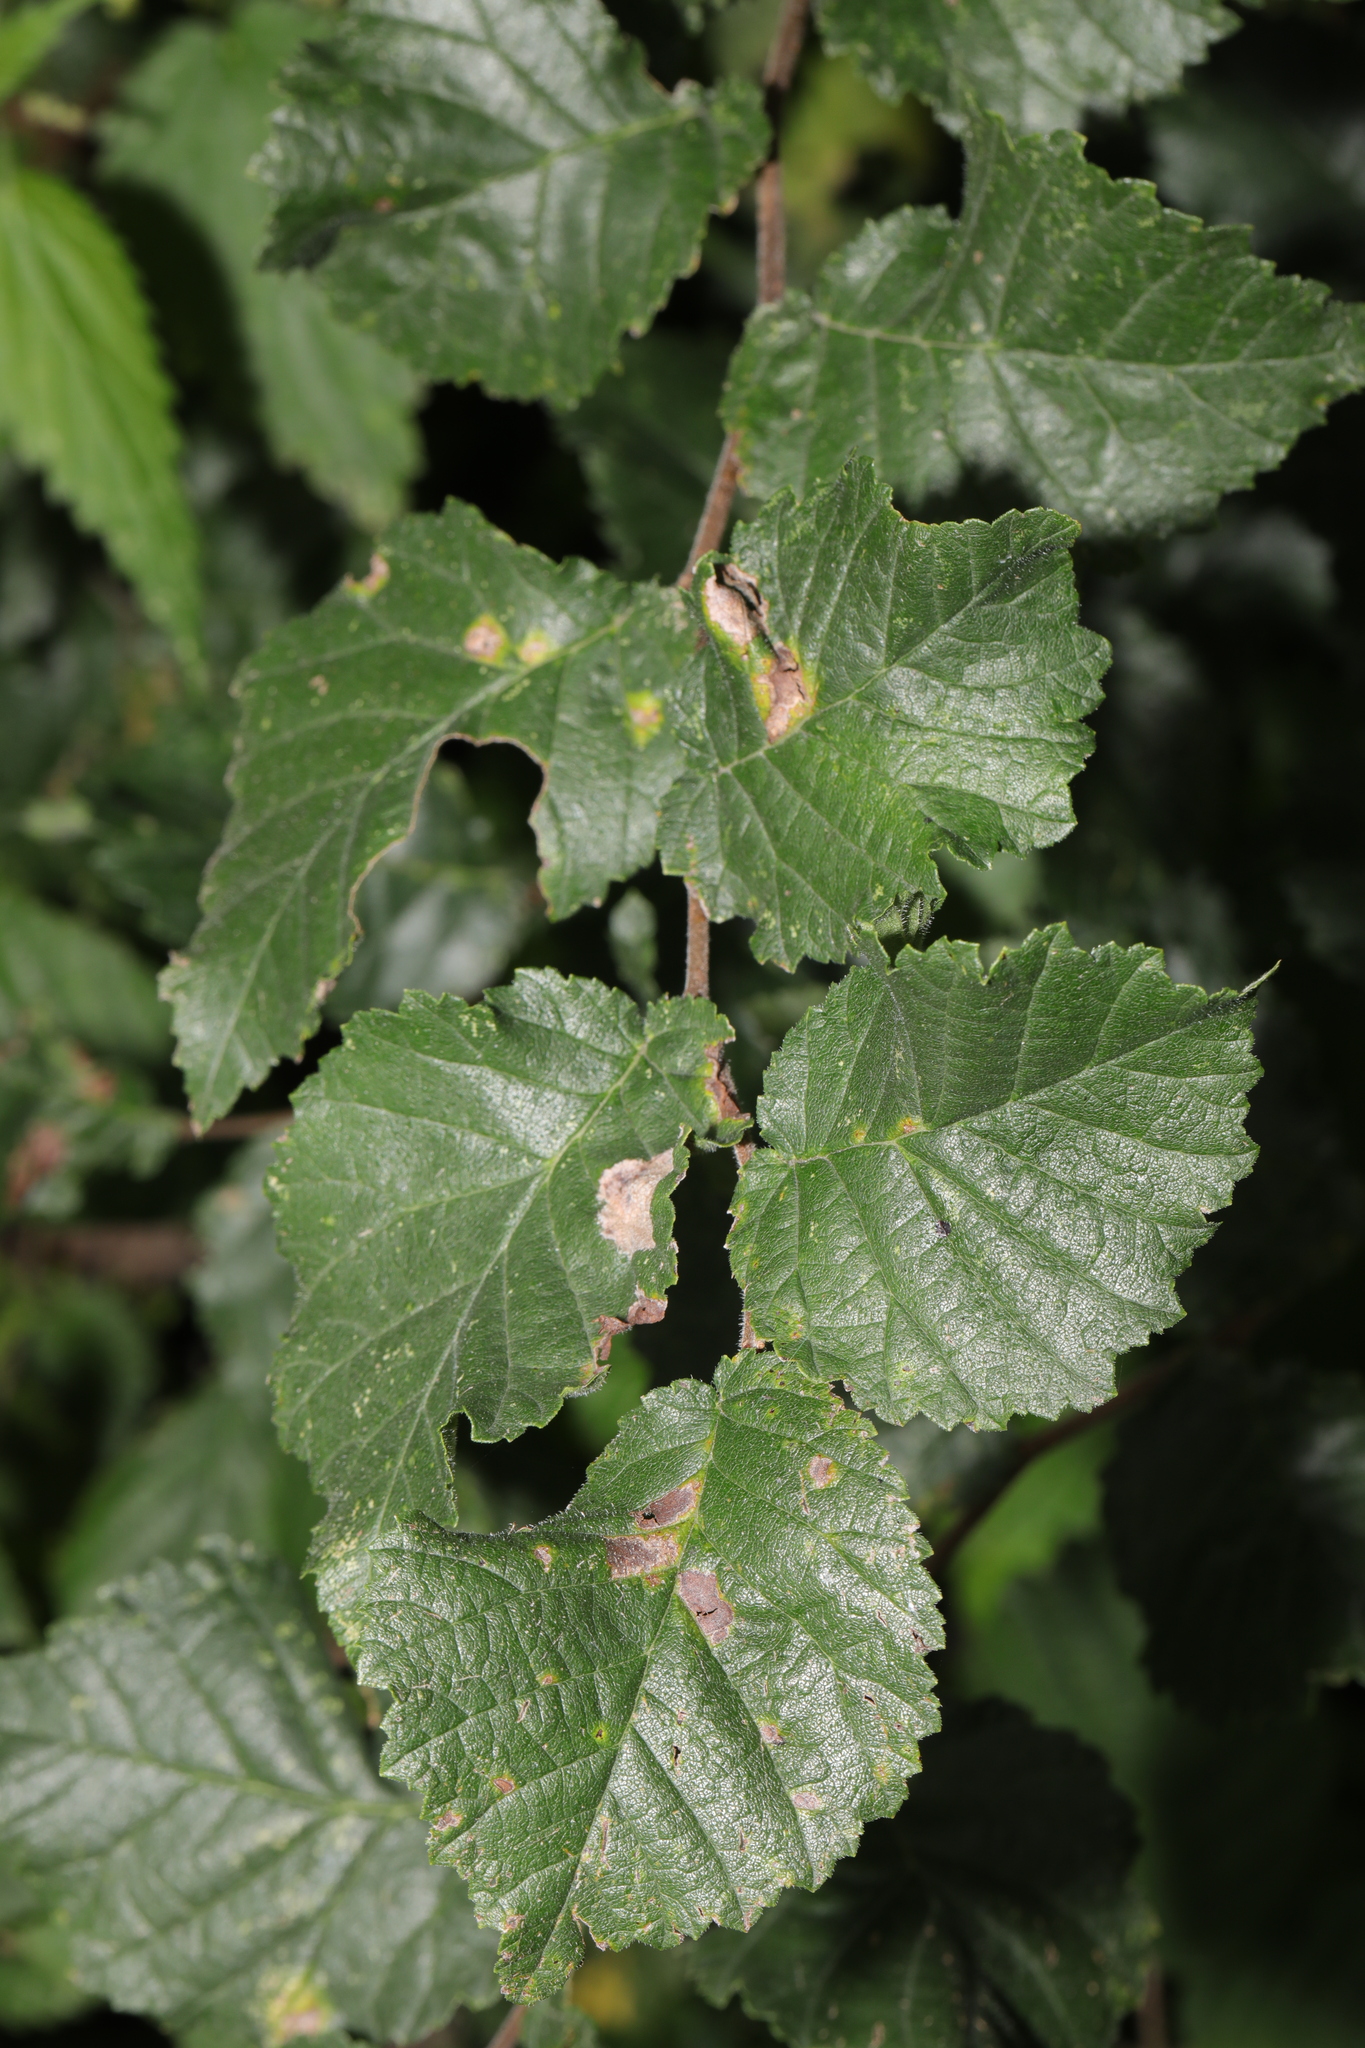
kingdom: Plantae
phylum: Tracheophyta
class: Magnoliopsida
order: Rosales
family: Ulmaceae
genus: Ulmus
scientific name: Ulmus minor
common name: Small-leaved elm
